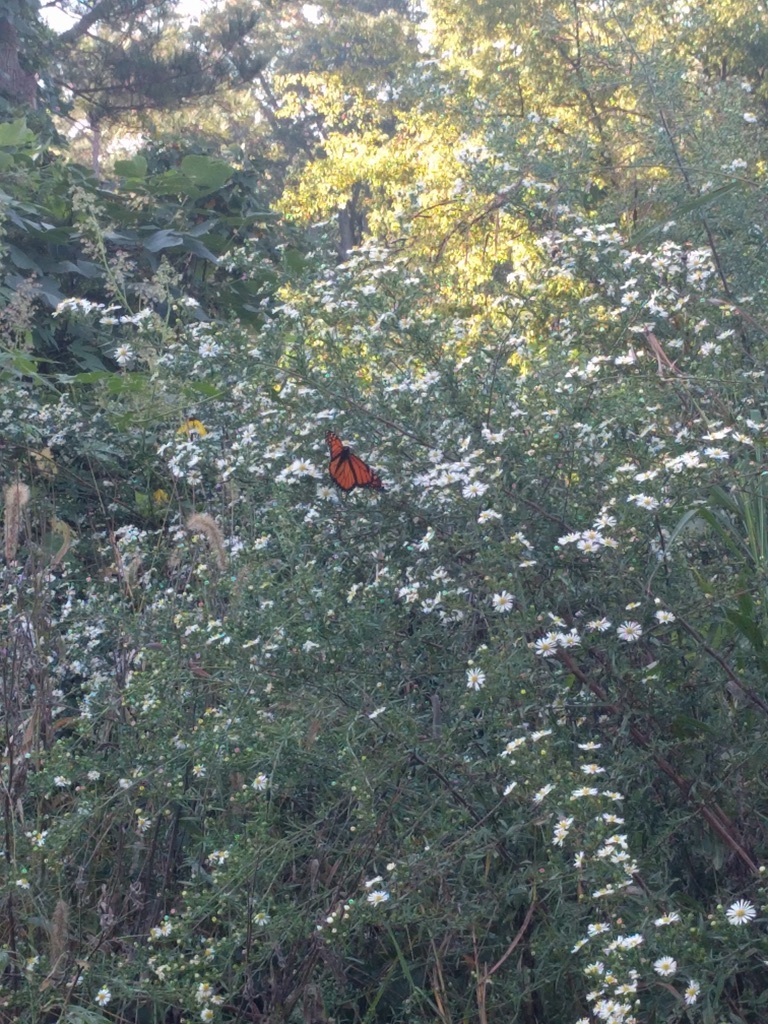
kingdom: Animalia
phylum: Arthropoda
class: Insecta
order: Lepidoptera
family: Nymphalidae
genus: Danaus
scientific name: Danaus plexippus
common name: Monarch
